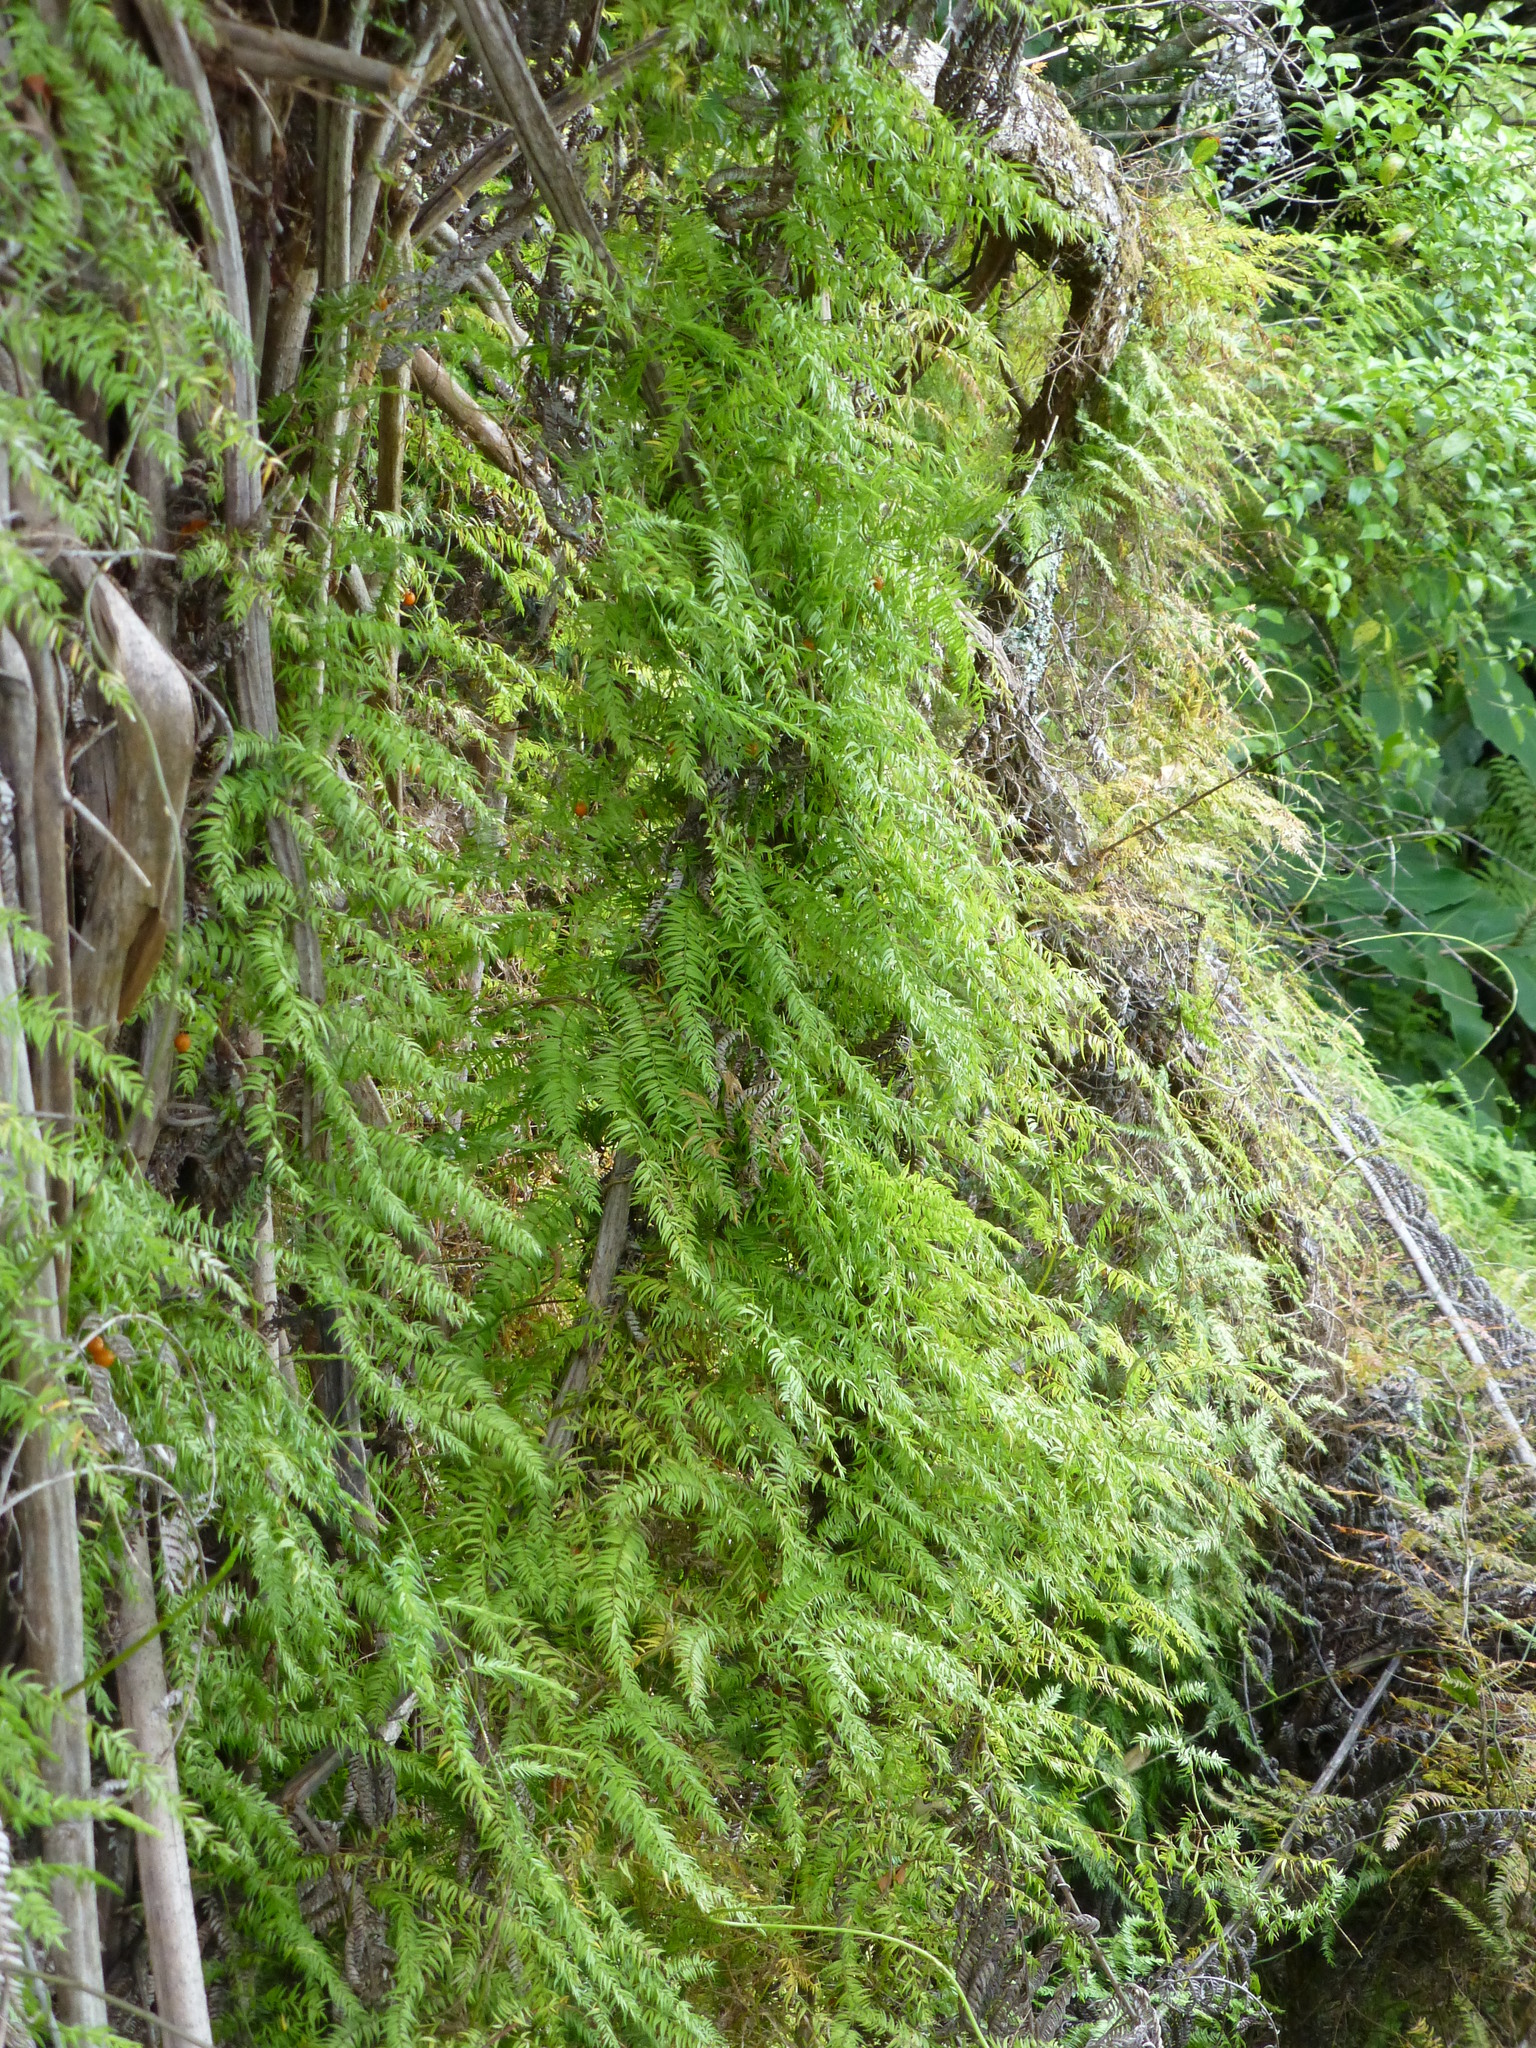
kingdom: Plantae
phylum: Tracheophyta
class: Liliopsida
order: Asparagales
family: Asparagaceae
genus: Asparagus
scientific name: Asparagus scandens
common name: Asparagus-fern
